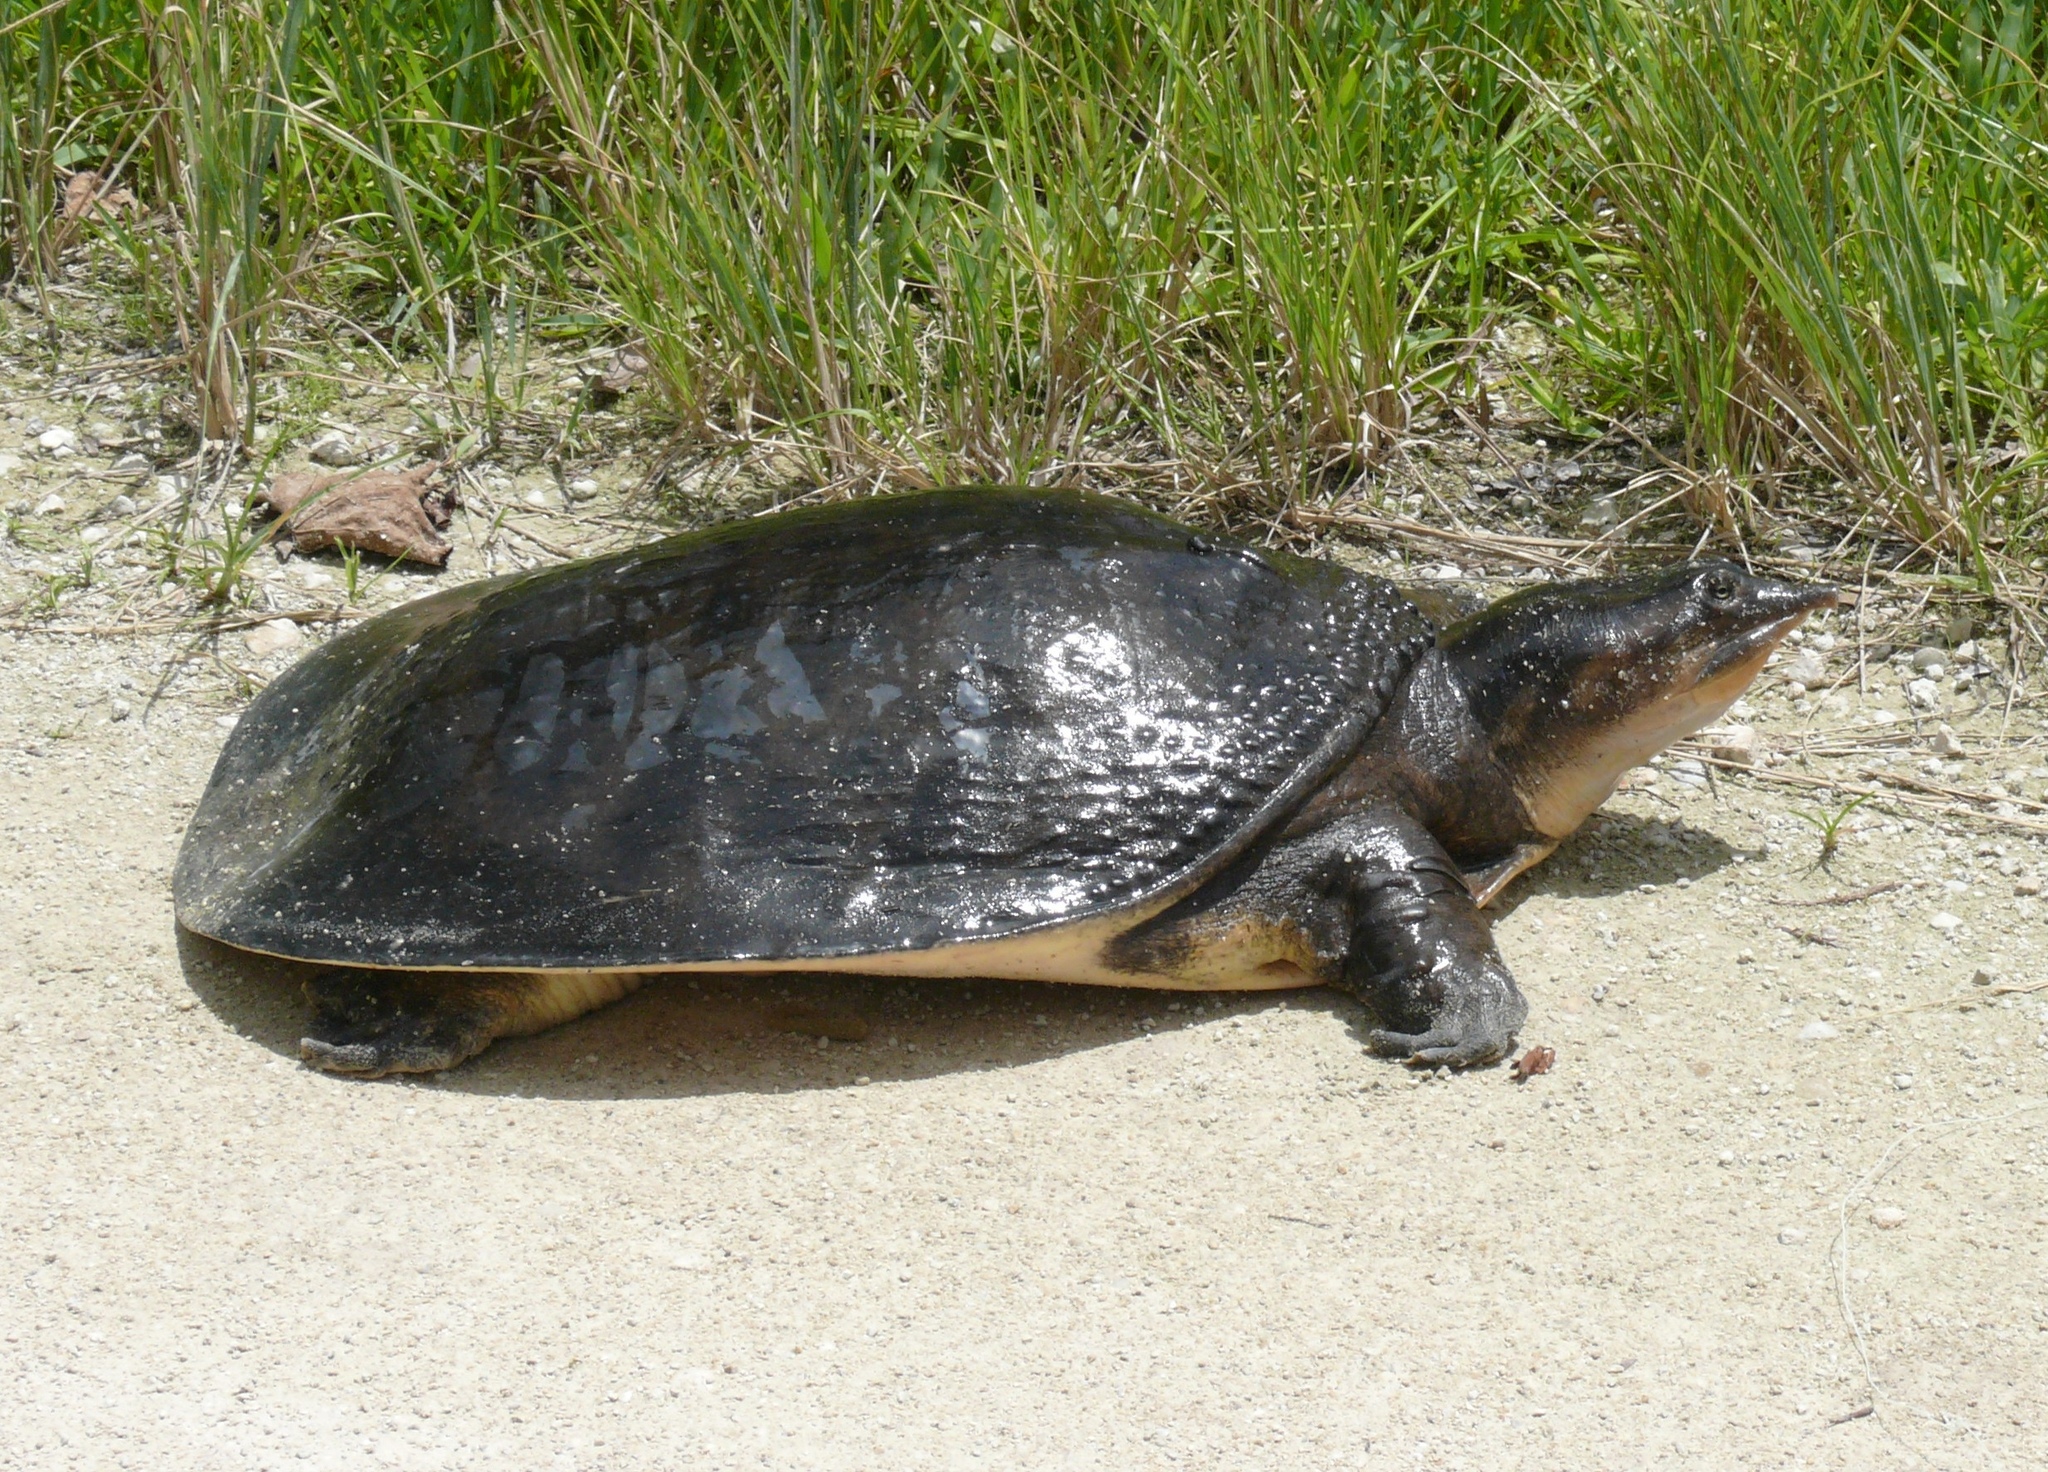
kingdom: Animalia
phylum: Chordata
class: Testudines
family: Trionychidae
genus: Apalone
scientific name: Apalone ferox
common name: Florida softshell turtle
